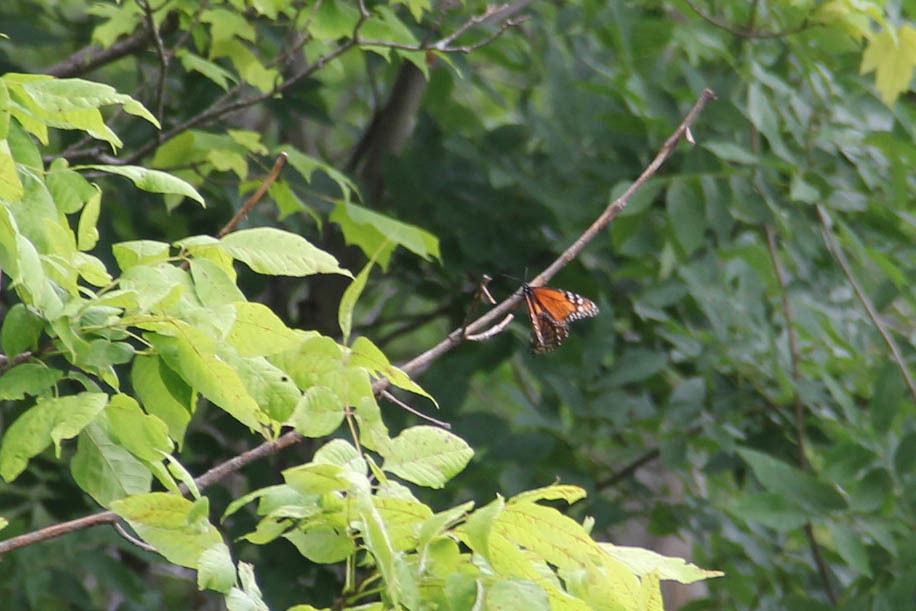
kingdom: Animalia
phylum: Arthropoda
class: Insecta
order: Lepidoptera
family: Nymphalidae
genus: Danaus
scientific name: Danaus plexippus
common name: Monarch
